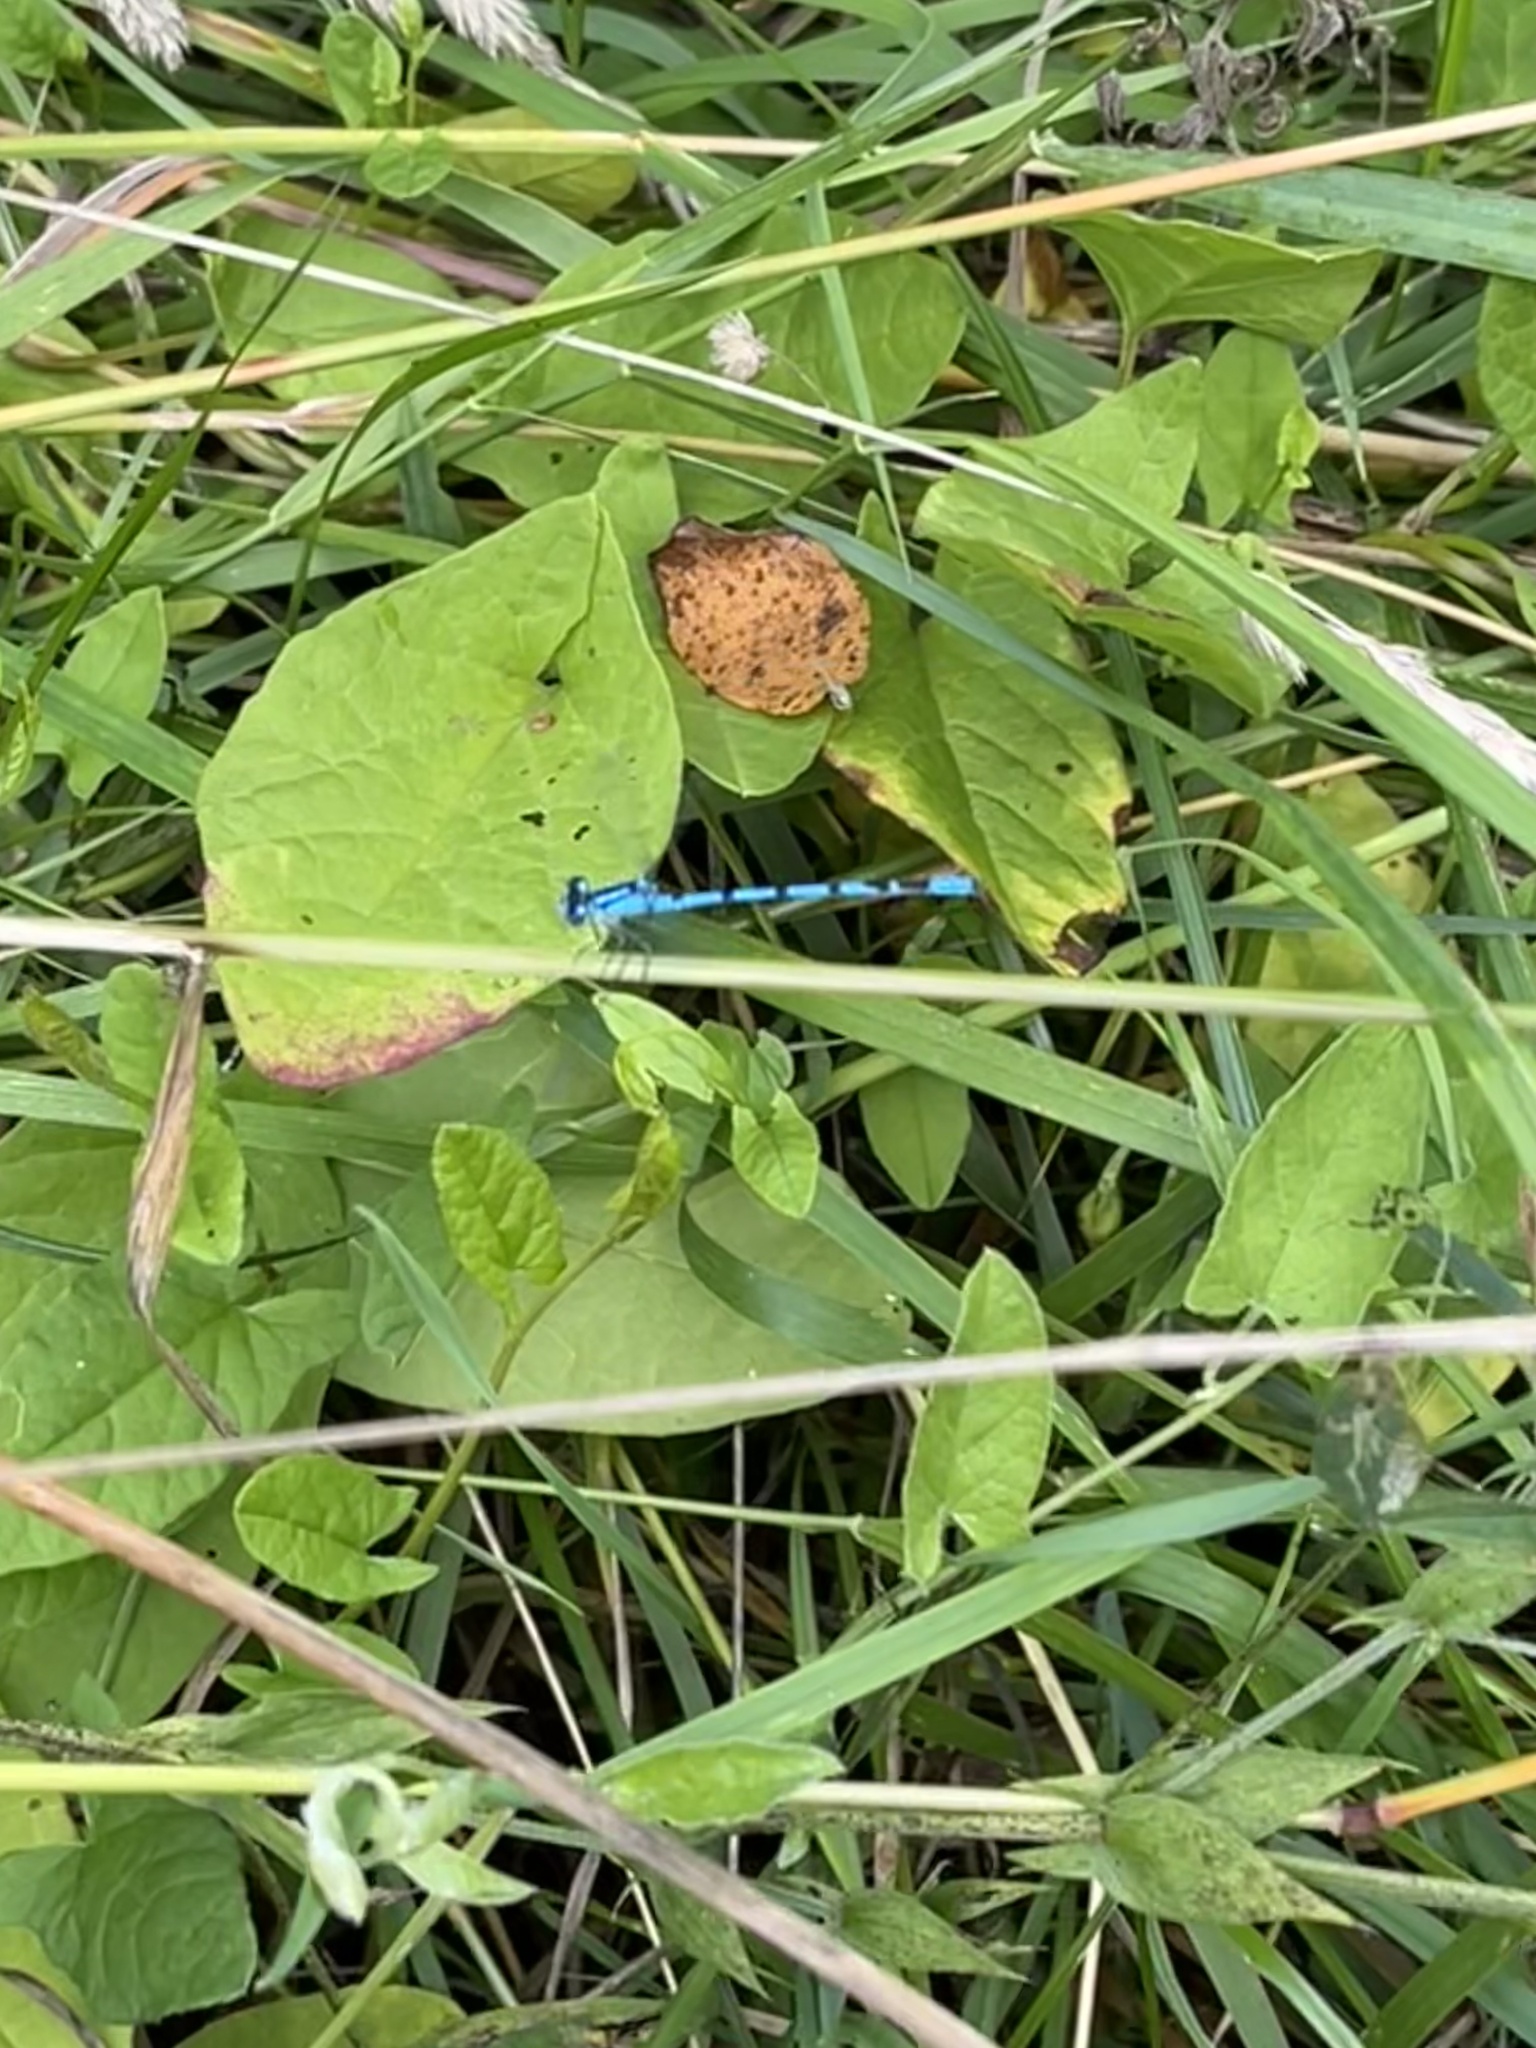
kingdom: Animalia
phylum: Arthropoda
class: Insecta
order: Odonata
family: Coenagrionidae
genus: Enallagma
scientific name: Enallagma cyathigerum
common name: Common blue damselfly
